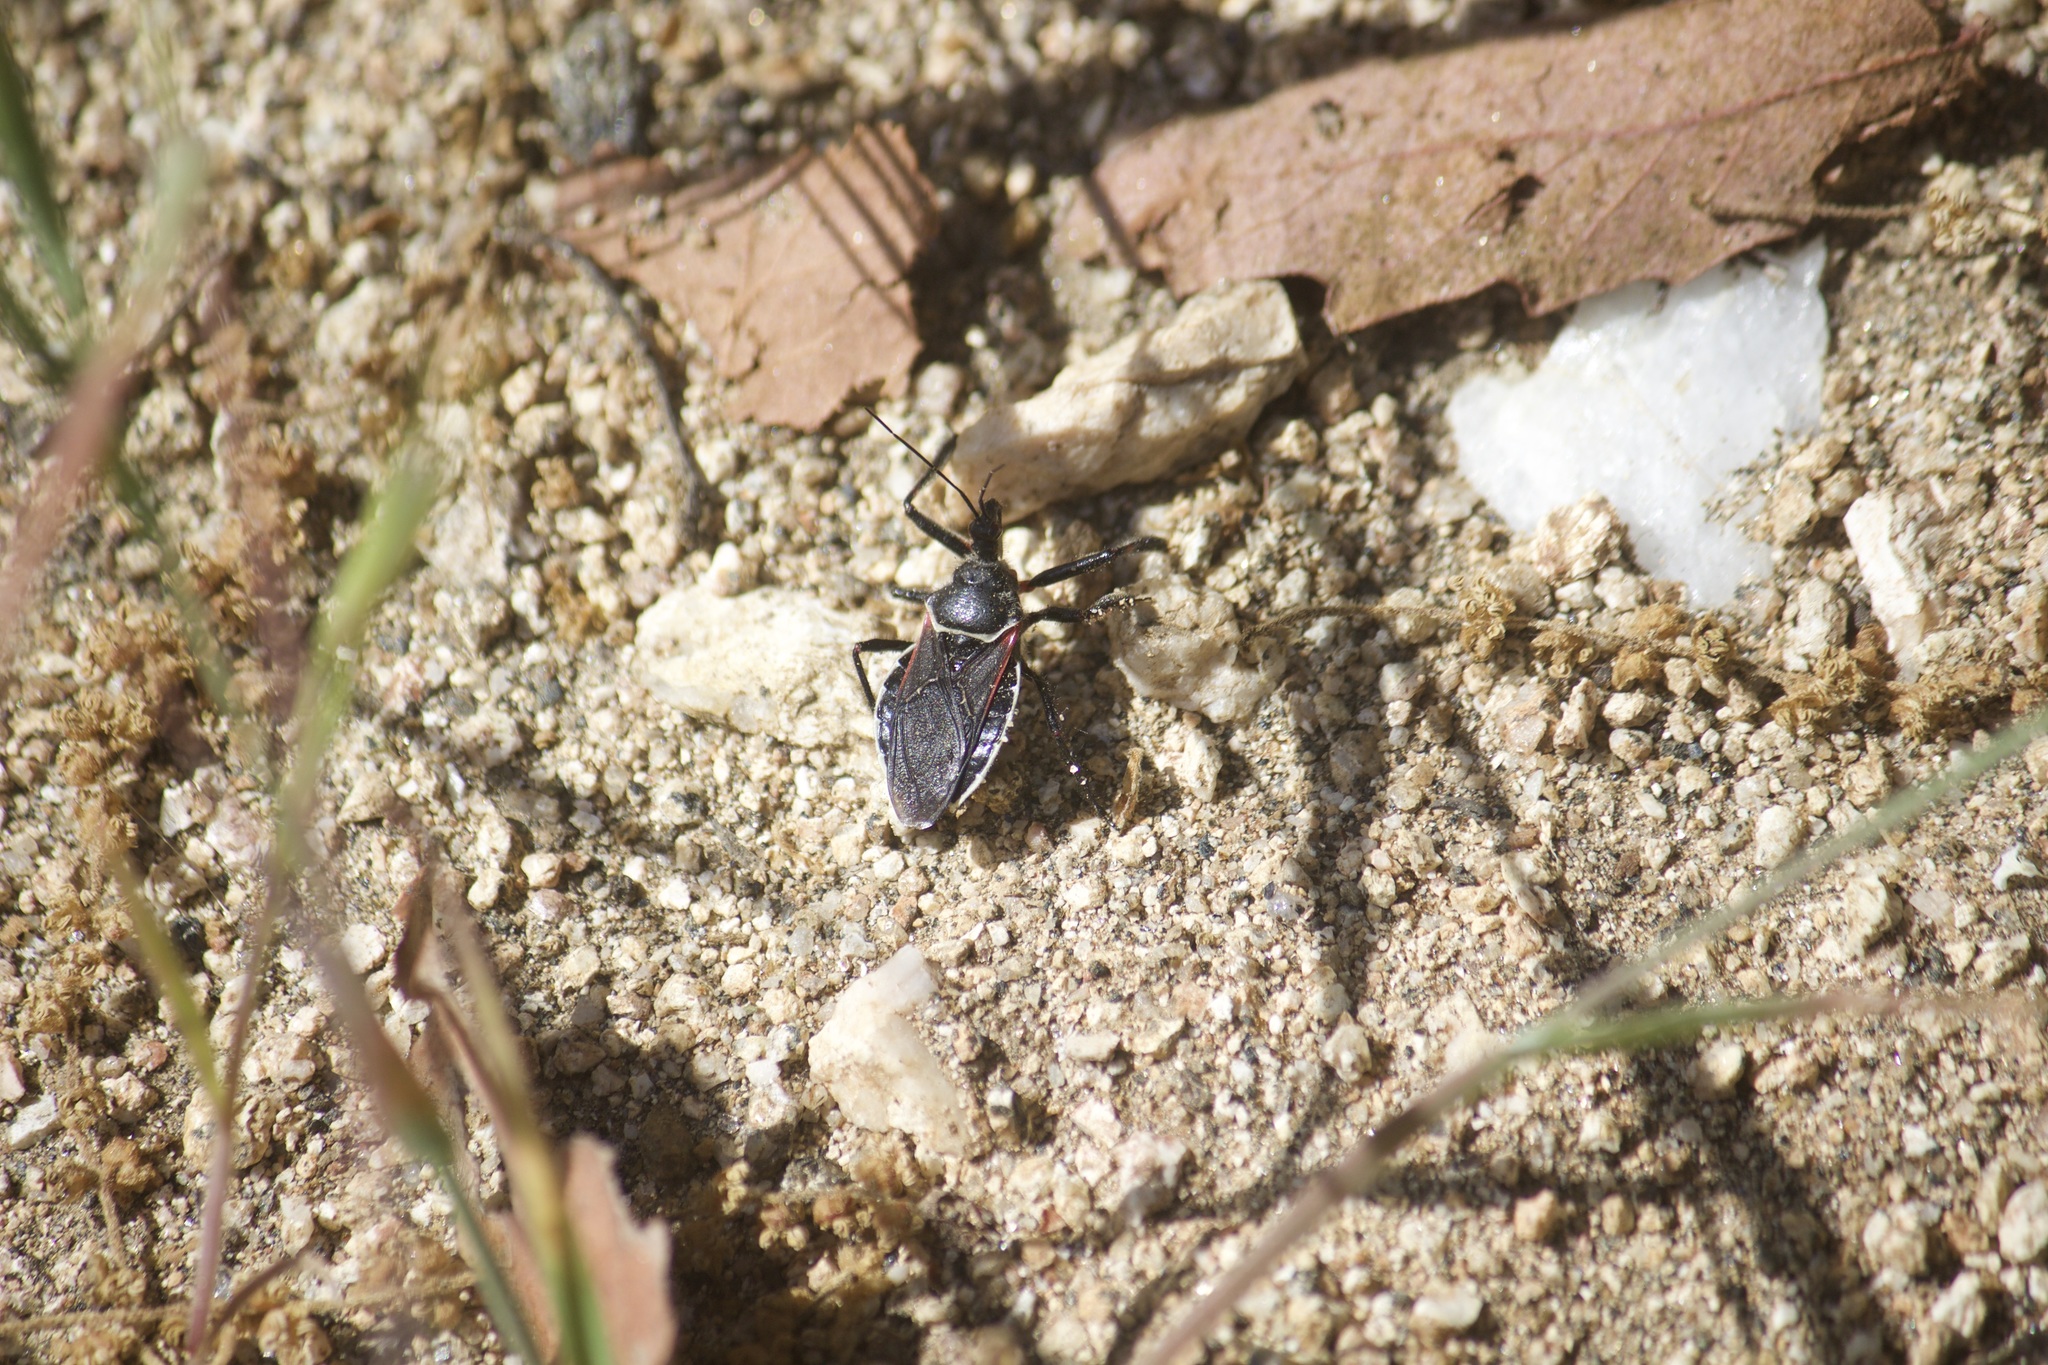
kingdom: Animalia
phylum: Arthropoda
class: Insecta
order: Hemiptera
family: Reduviidae
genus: Apiomerus
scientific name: Apiomerus californicus
